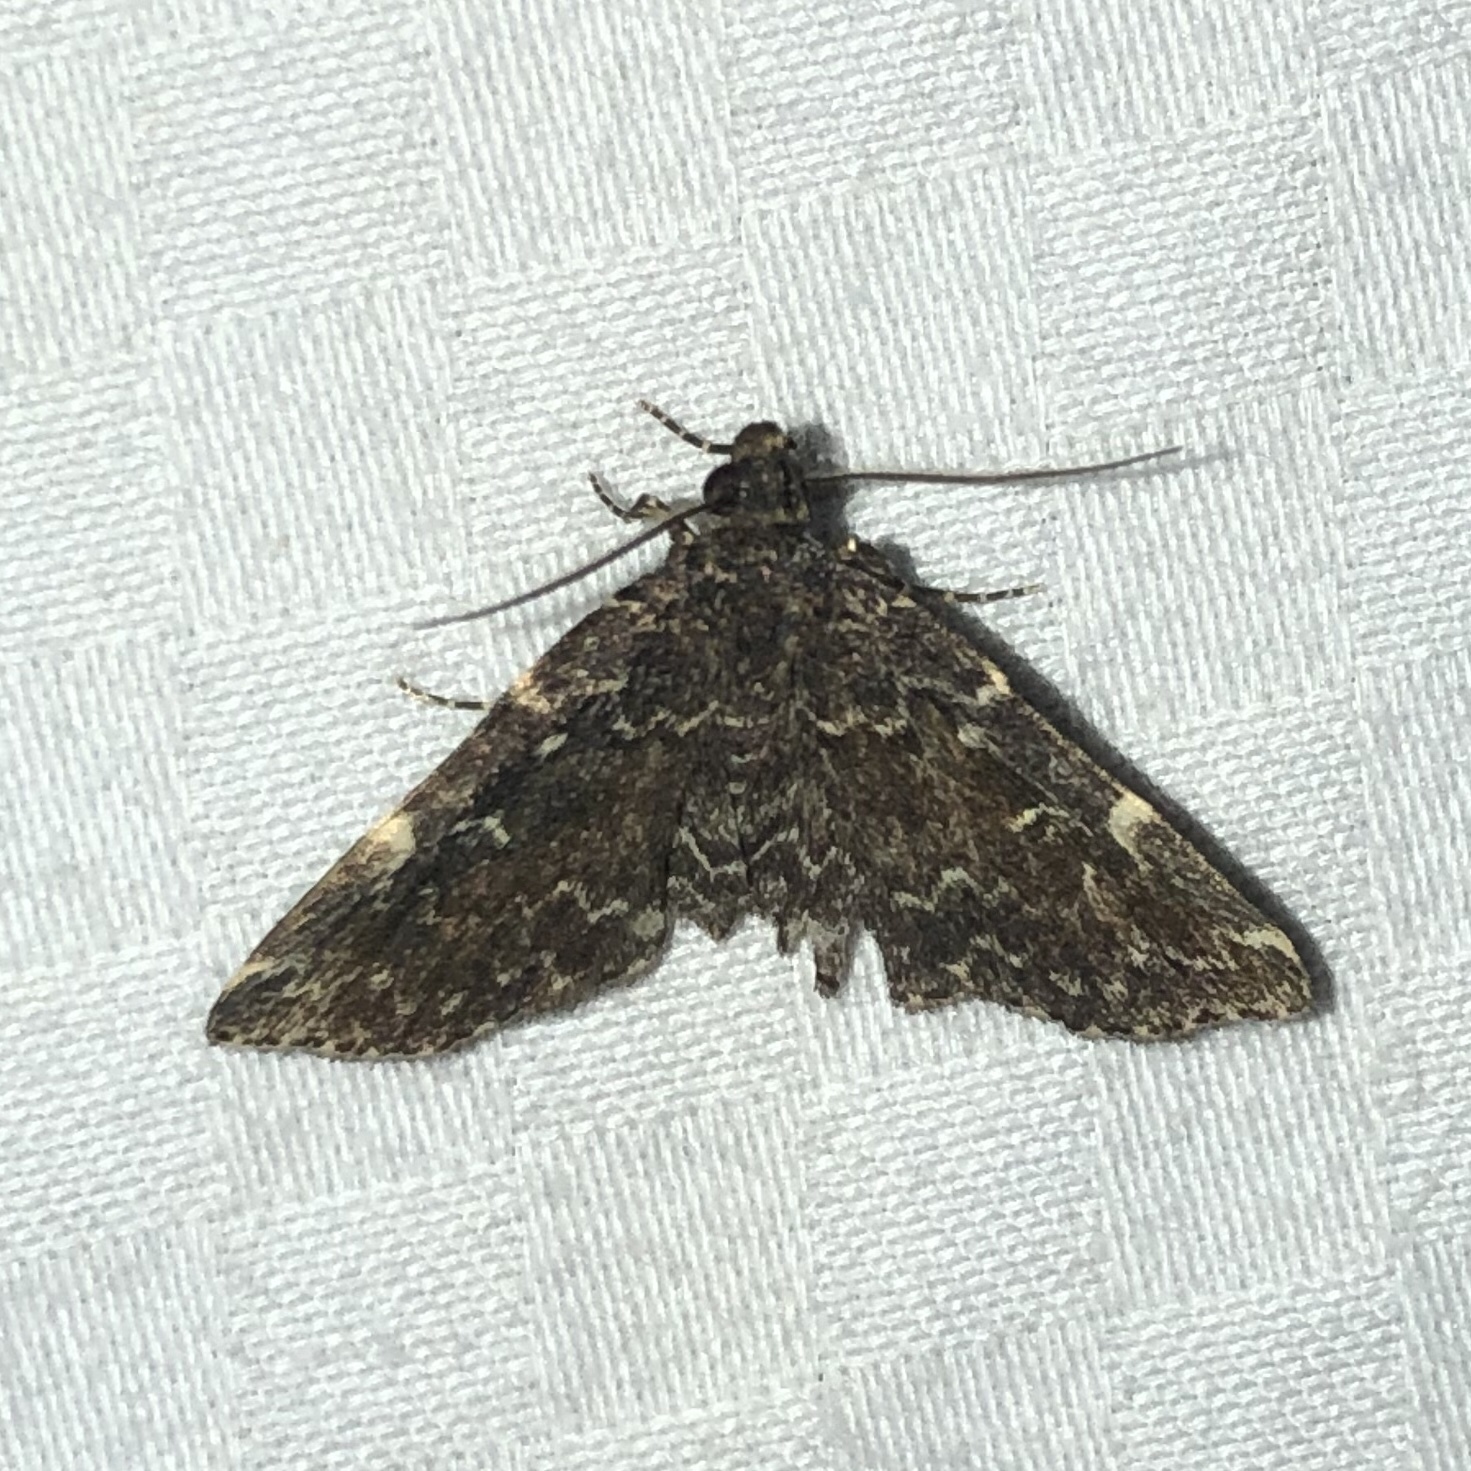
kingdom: Animalia
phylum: Arthropoda
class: Insecta
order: Lepidoptera
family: Erebidae
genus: Idia
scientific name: Idia lubricalis
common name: Twin-striped tabby
